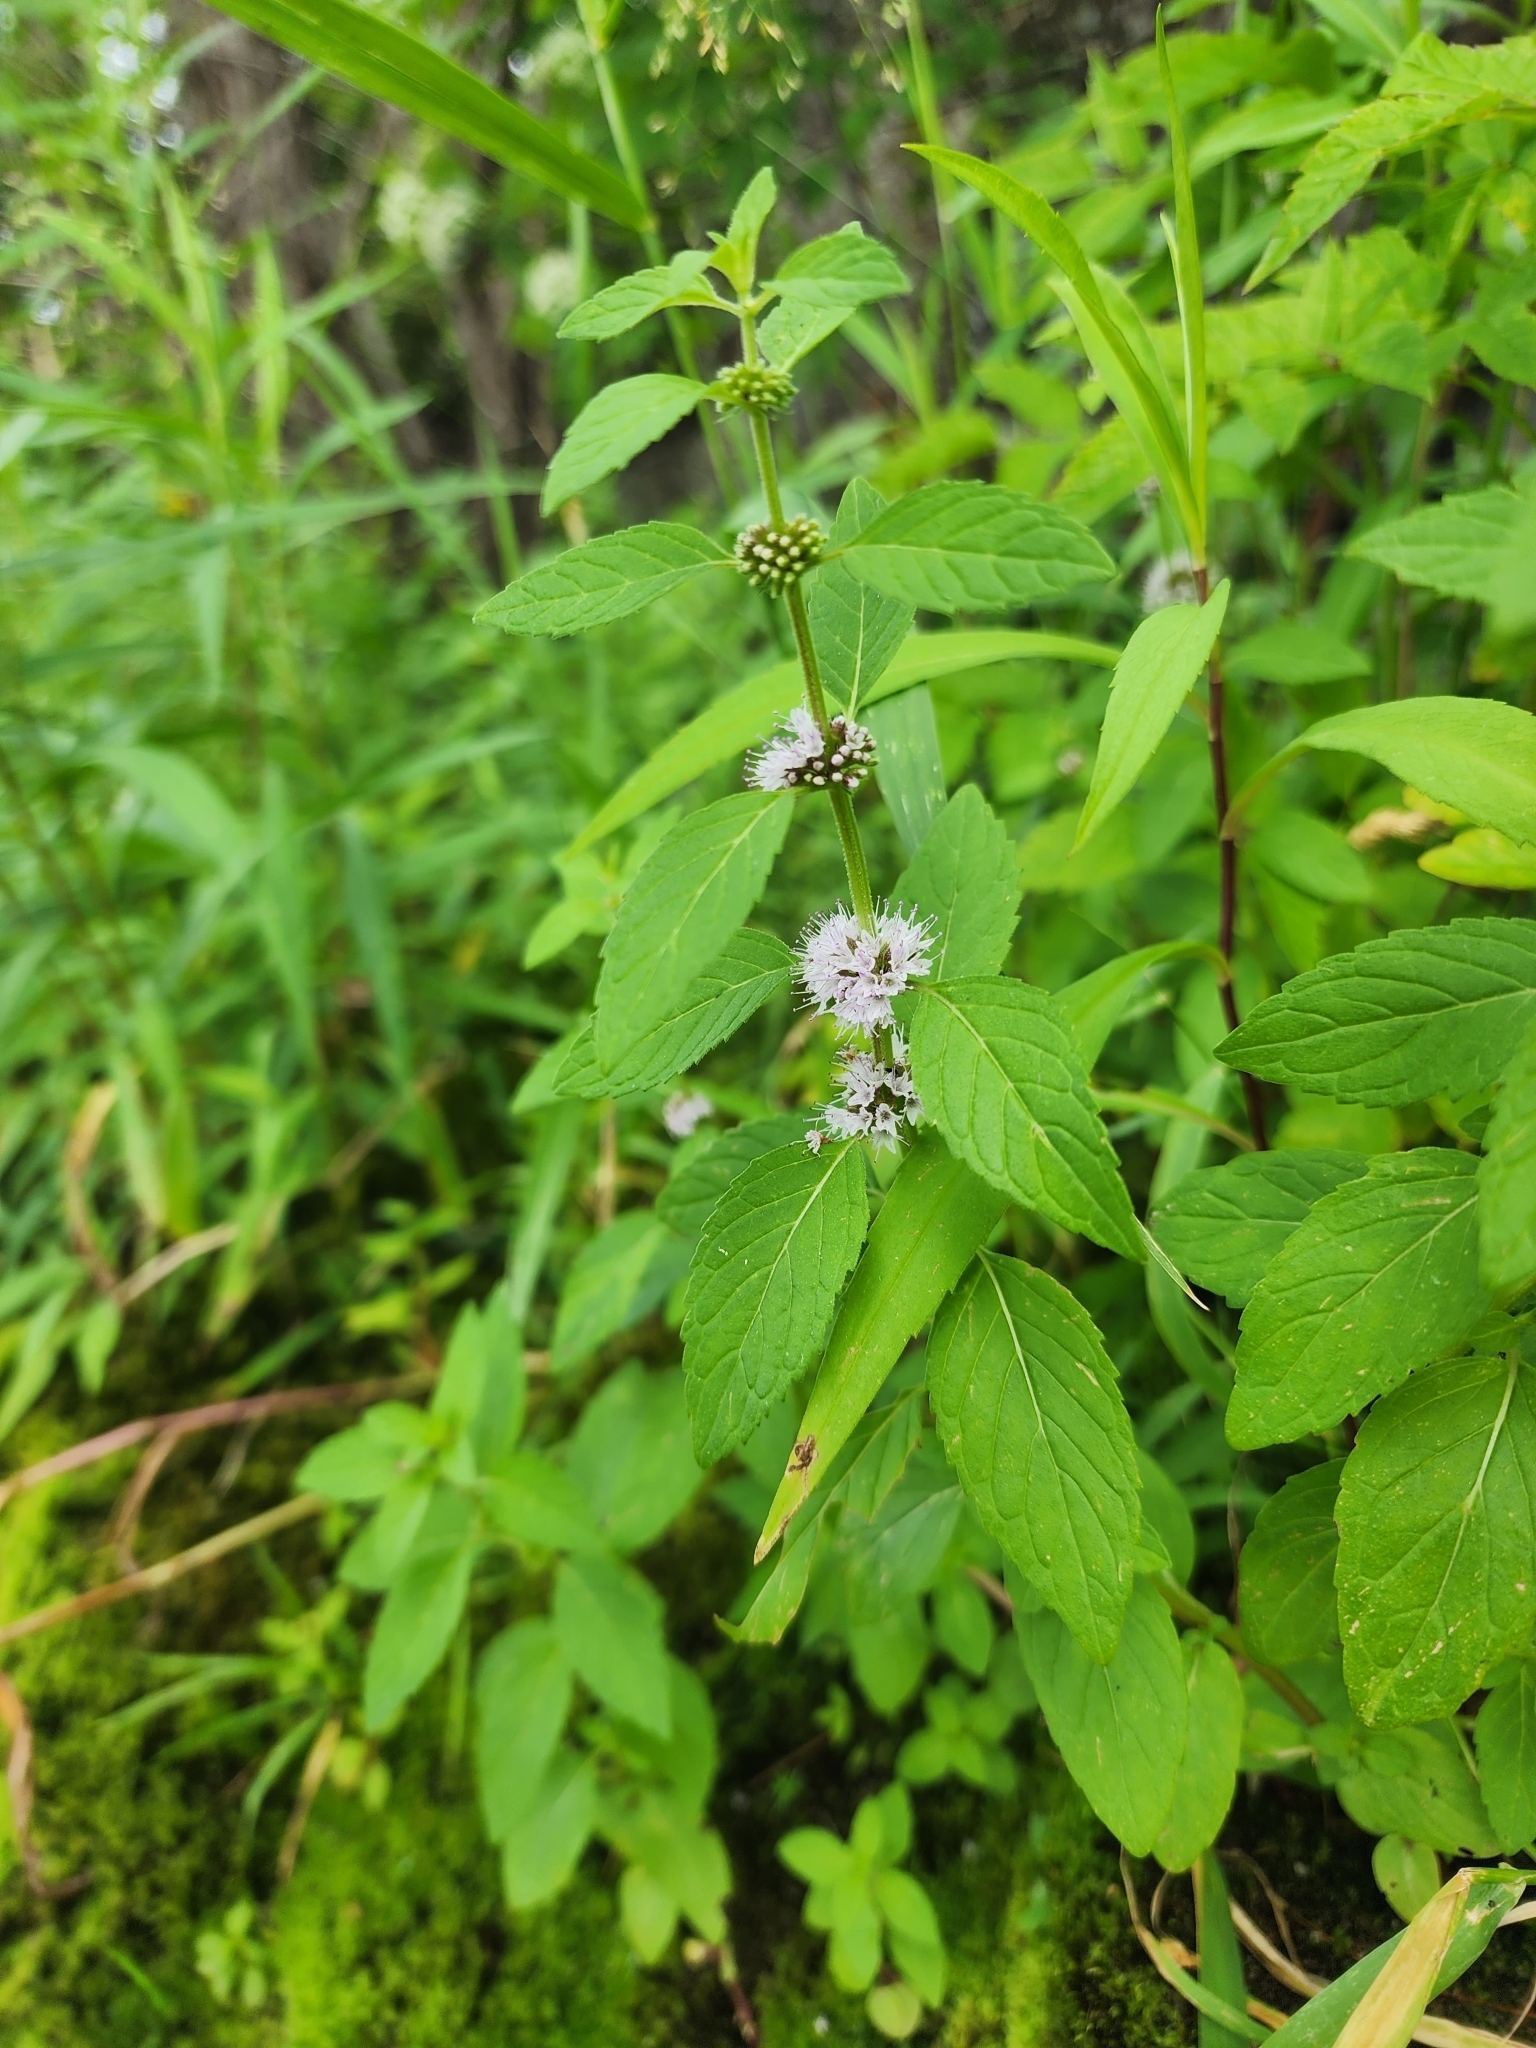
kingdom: Plantae
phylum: Tracheophyta
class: Magnoliopsida
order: Lamiales
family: Lamiaceae
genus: Mentha
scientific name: Mentha canadensis
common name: American corn mint
